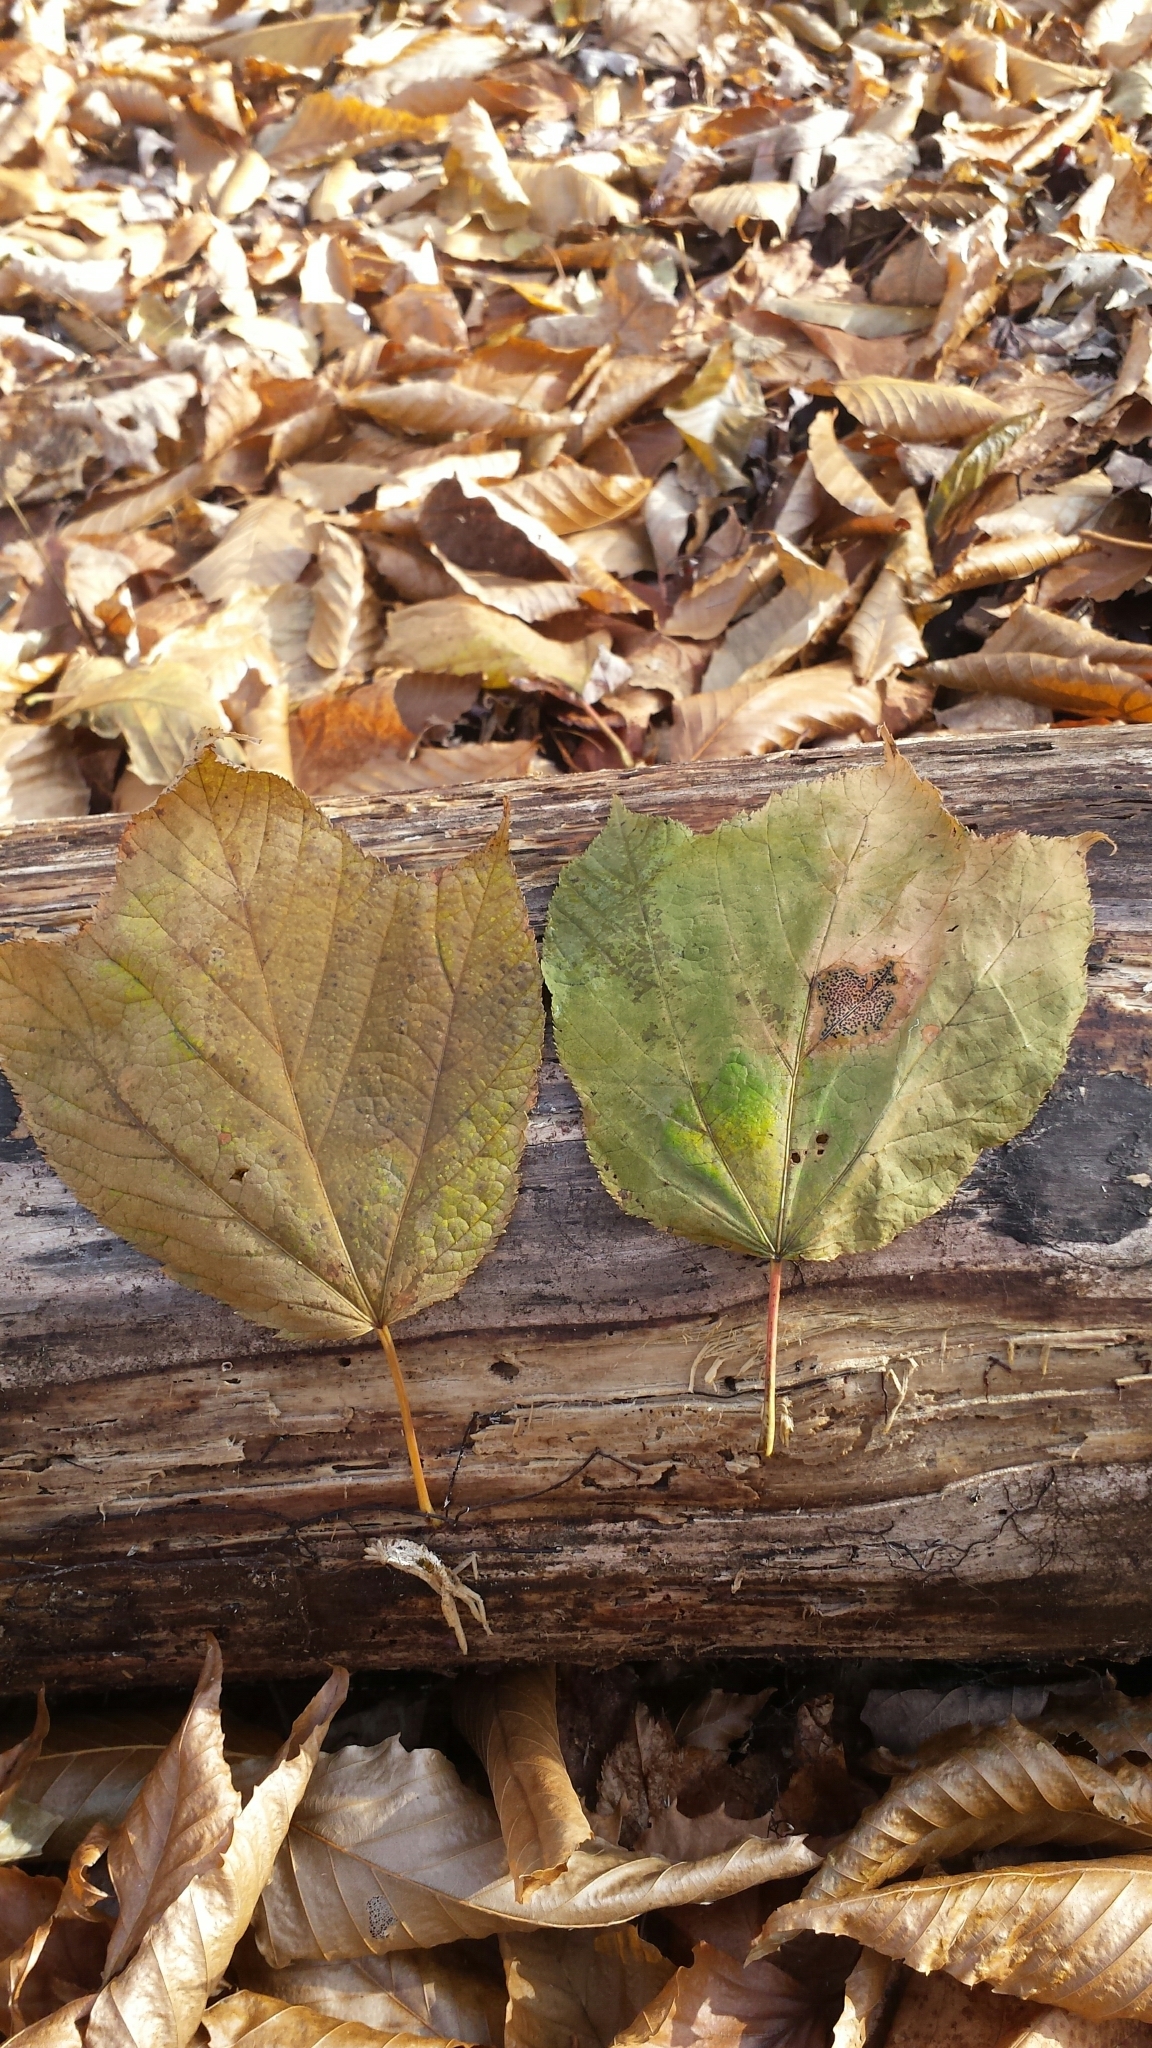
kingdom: Plantae
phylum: Tracheophyta
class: Magnoliopsida
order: Sapindales
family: Sapindaceae
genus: Acer
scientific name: Acer pensylvanicum
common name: Moosewood
